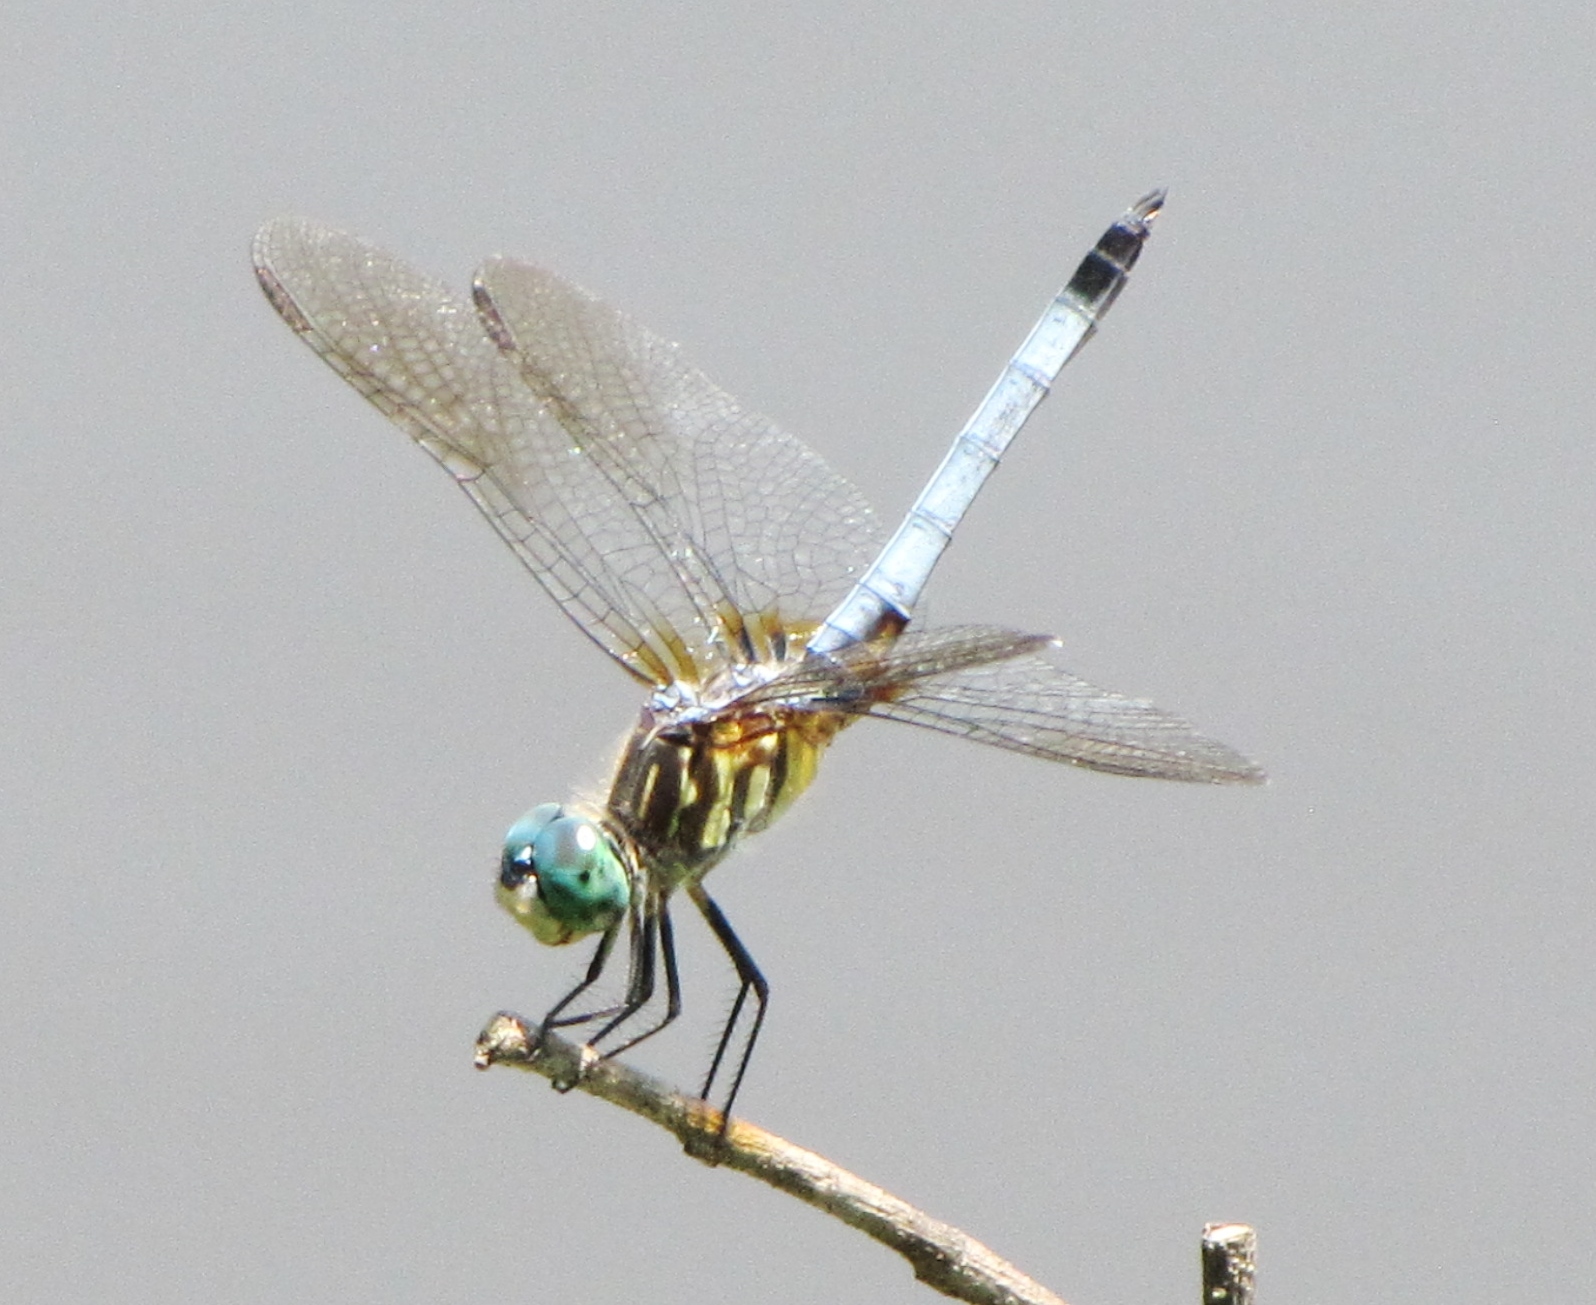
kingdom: Animalia
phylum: Arthropoda
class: Insecta
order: Odonata
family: Libellulidae
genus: Pachydiplax
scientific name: Pachydiplax longipennis
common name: Blue dasher
